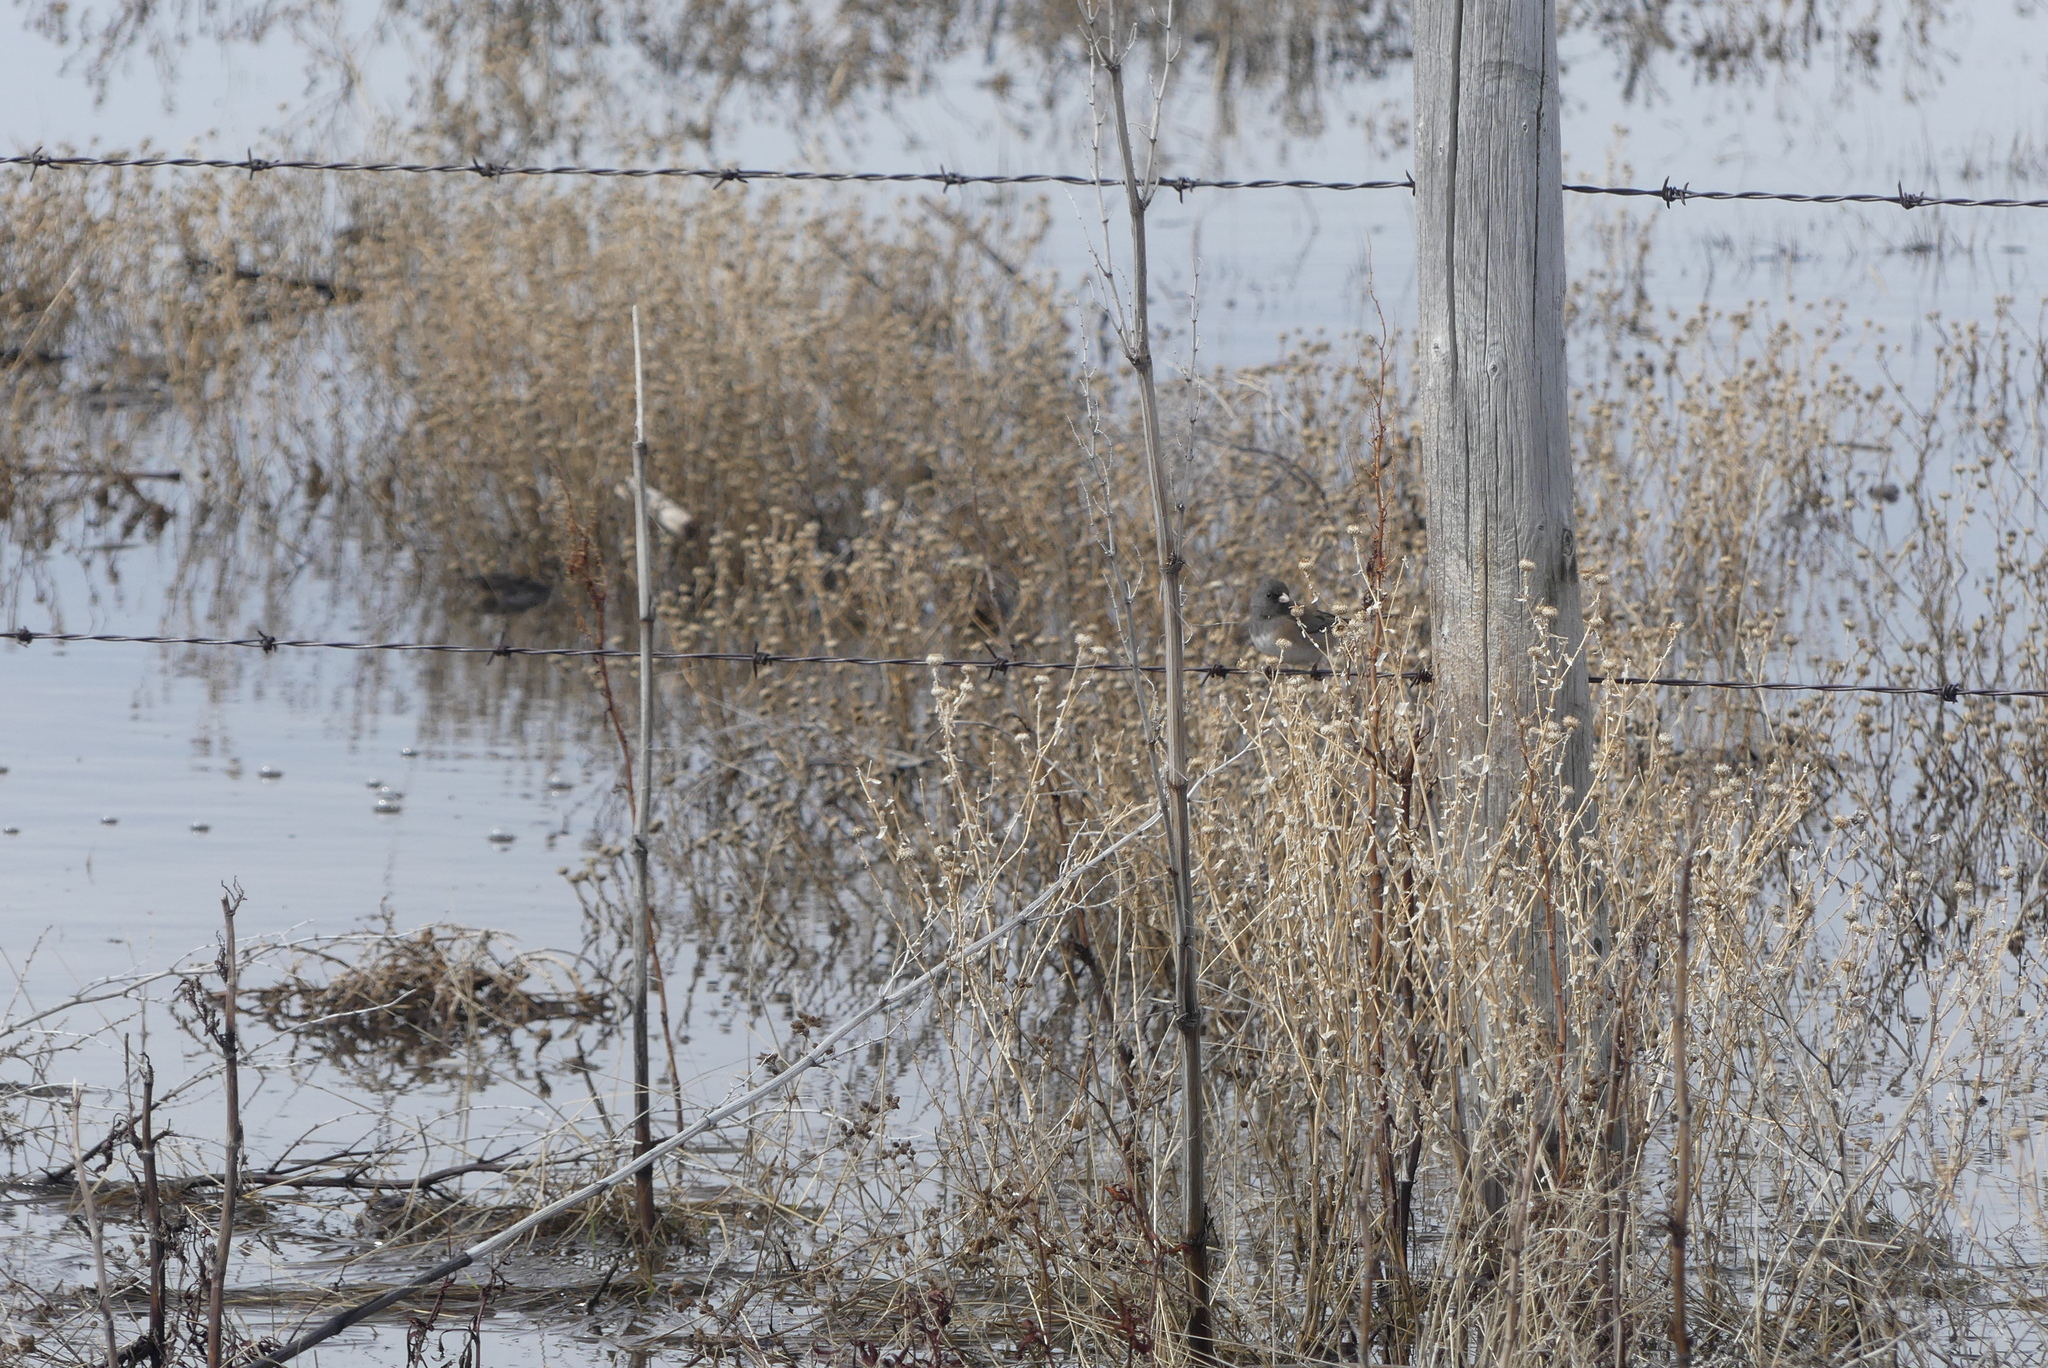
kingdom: Animalia
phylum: Chordata
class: Aves
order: Passeriformes
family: Passerellidae
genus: Junco
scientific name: Junco hyemalis
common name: Dark-eyed junco
